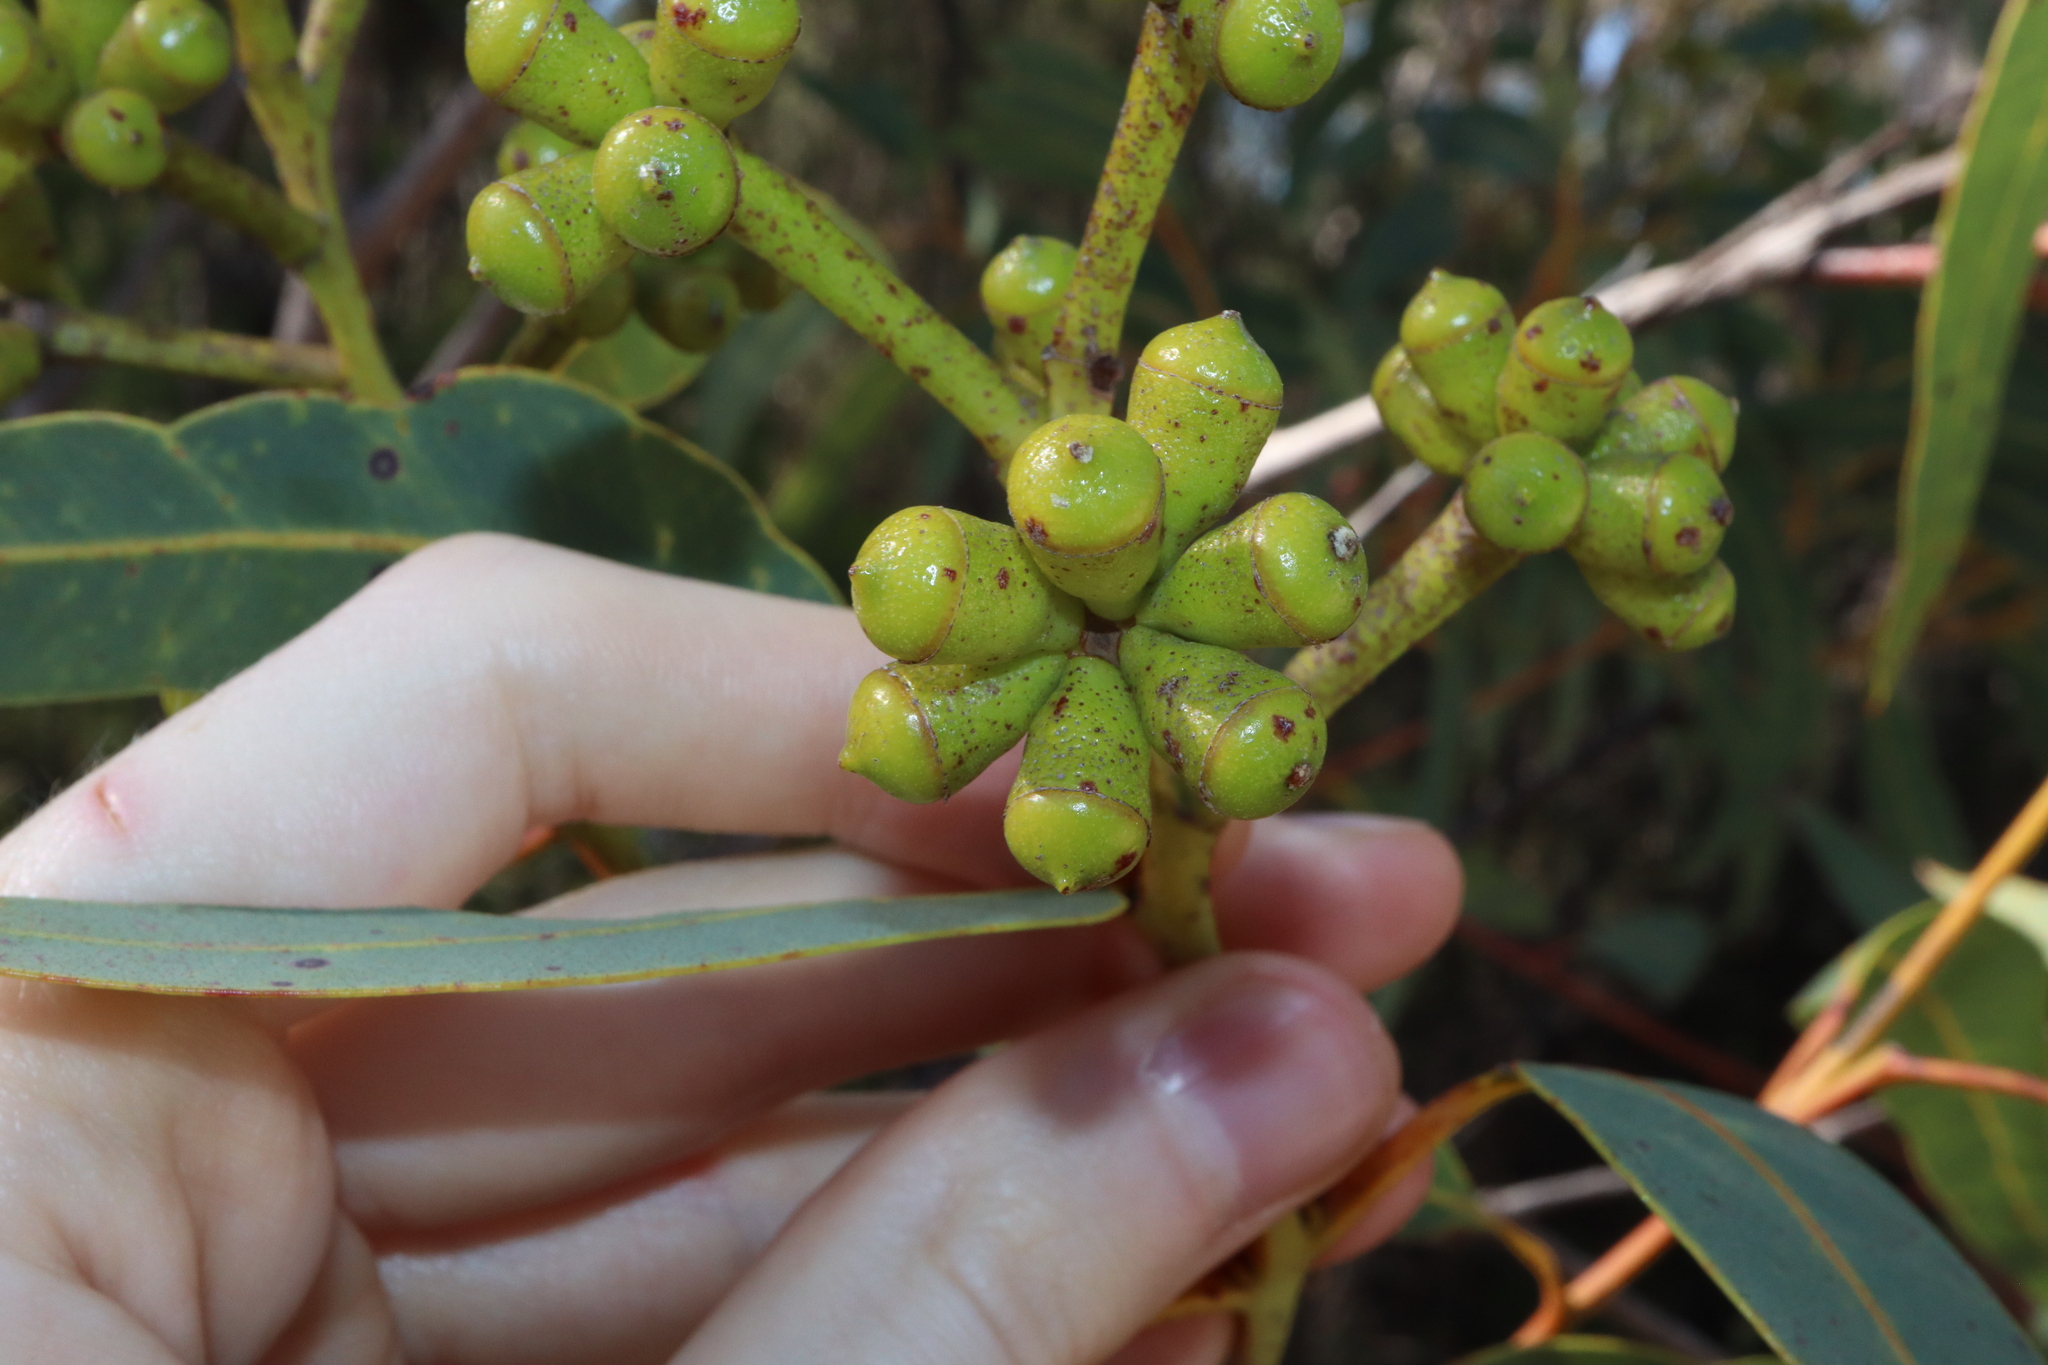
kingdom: Plantae
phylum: Tracheophyta
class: Magnoliopsida
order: Myrtales
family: Myrtaceae
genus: Corymbia
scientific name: Corymbia eximia
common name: Yellow bloodwood
